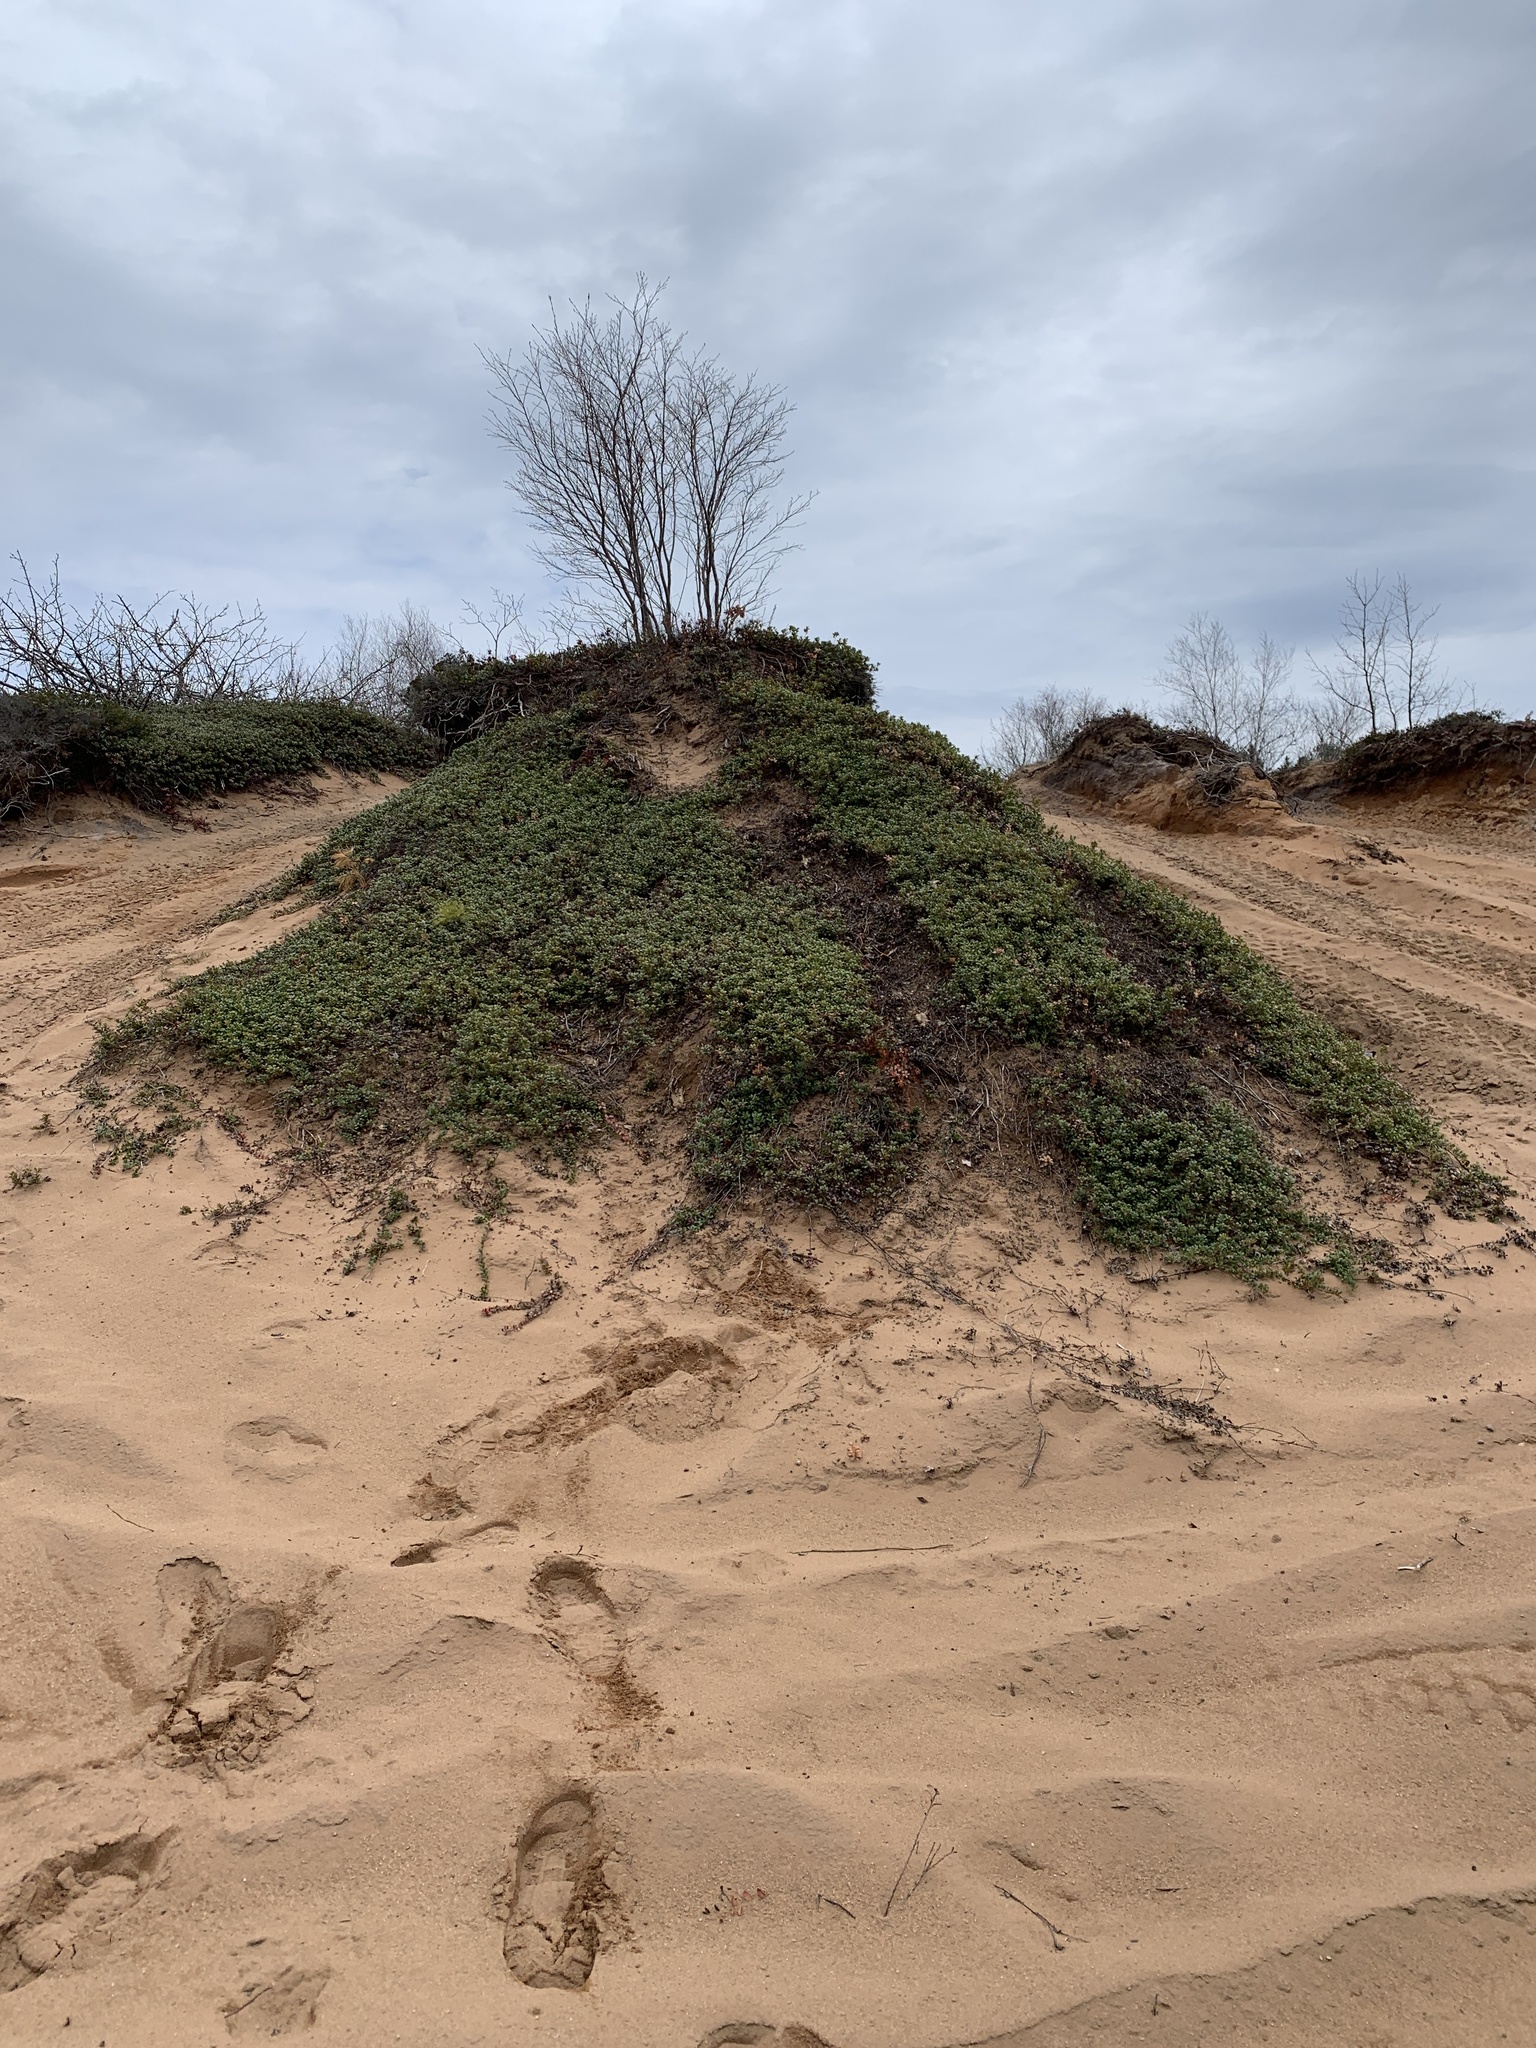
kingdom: Plantae
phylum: Tracheophyta
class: Magnoliopsida
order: Ericales
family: Ericaceae
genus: Arctostaphylos
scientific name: Arctostaphylos uva-ursi
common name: Bearberry
